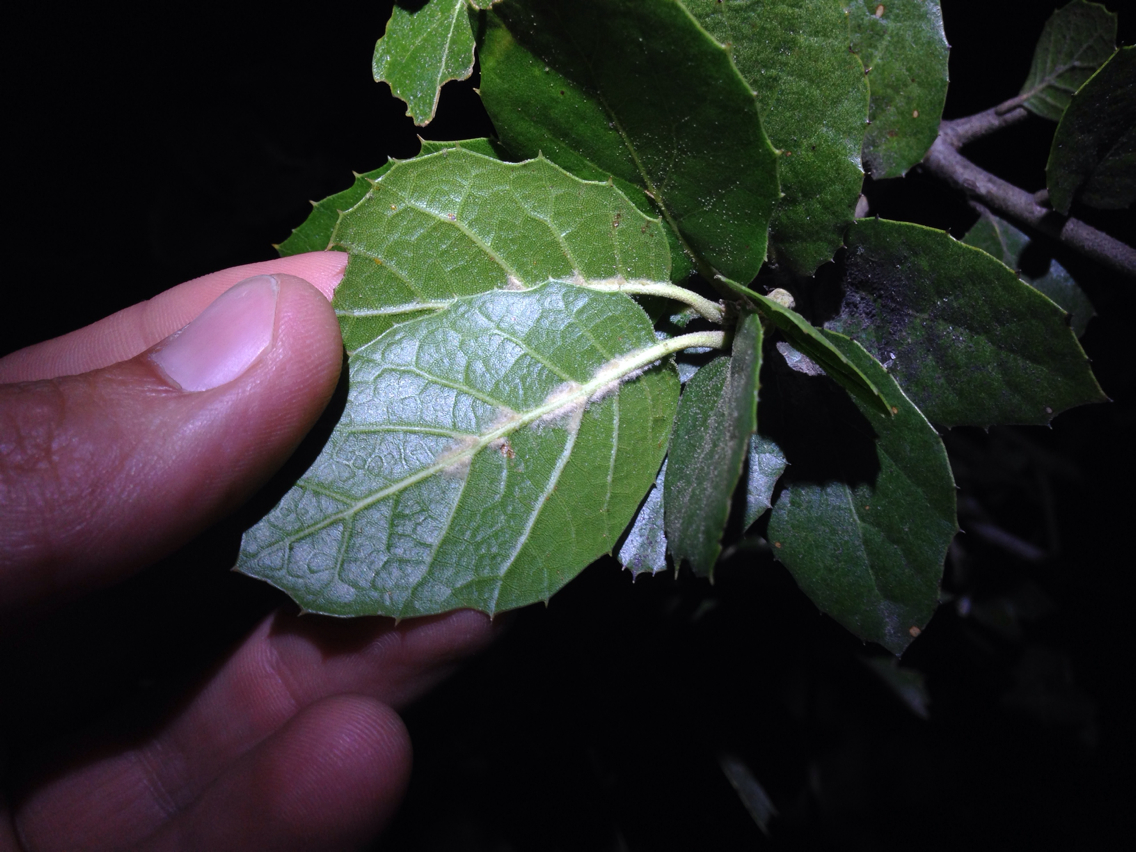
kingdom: Plantae
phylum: Tracheophyta
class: Magnoliopsida
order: Fagales
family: Fagaceae
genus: Quercus
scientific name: Quercus agrifolia
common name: California live oak
